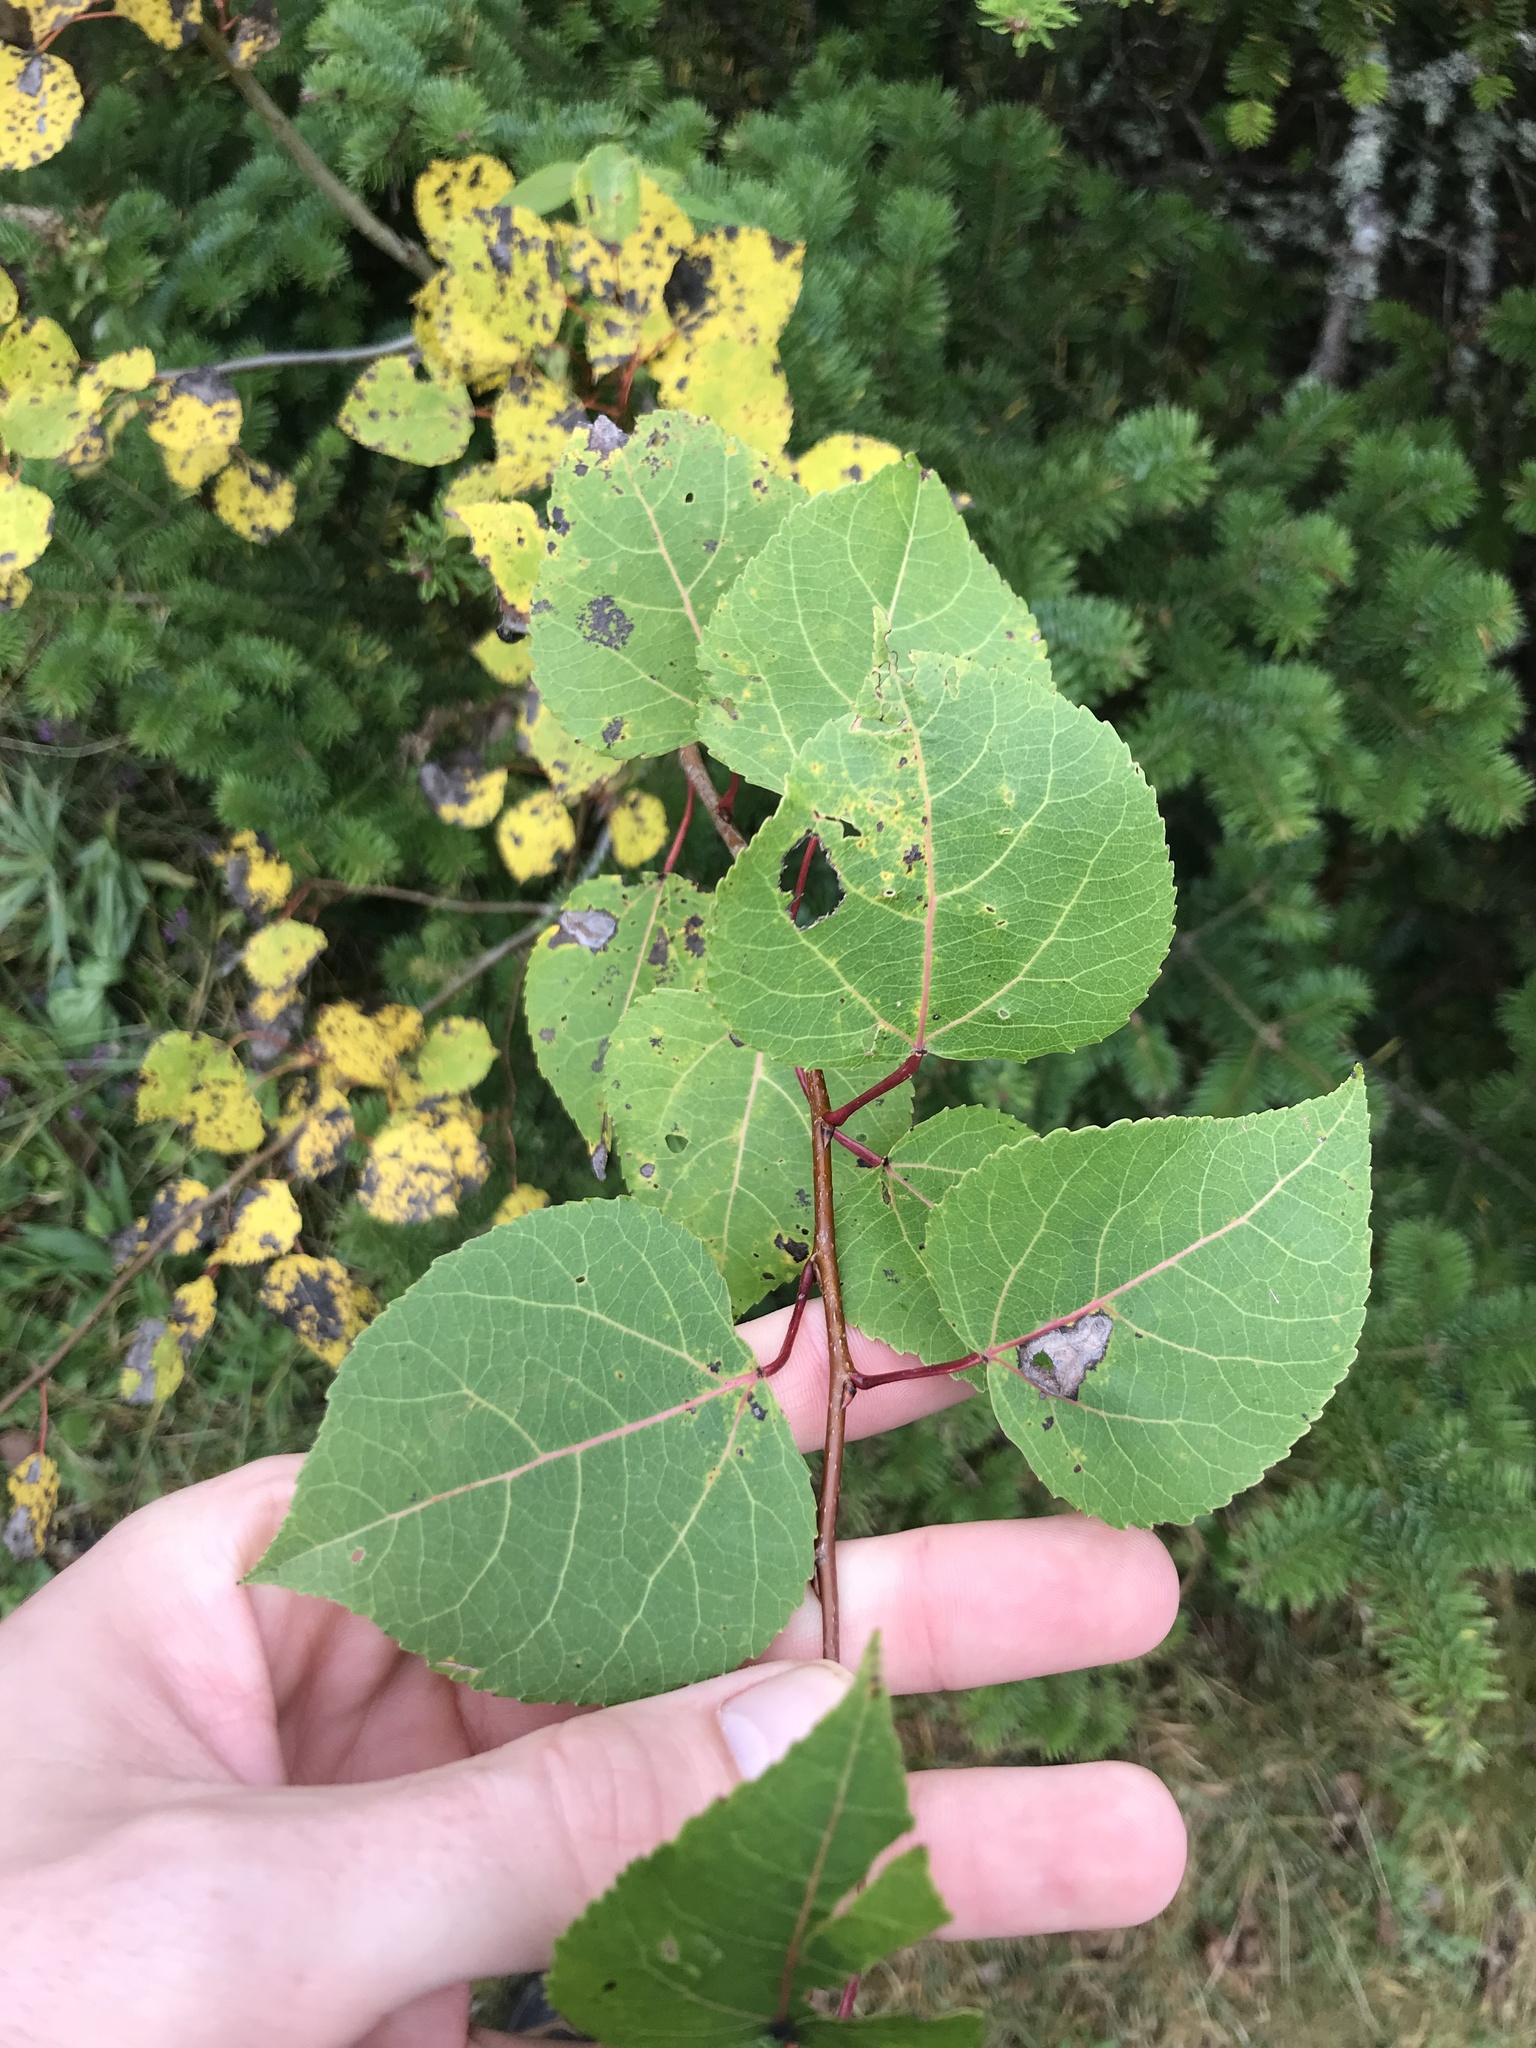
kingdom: Plantae
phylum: Tracheophyta
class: Magnoliopsida
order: Malpighiales
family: Salicaceae
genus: Populus
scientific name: Populus tremuloides
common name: Quaking aspen
